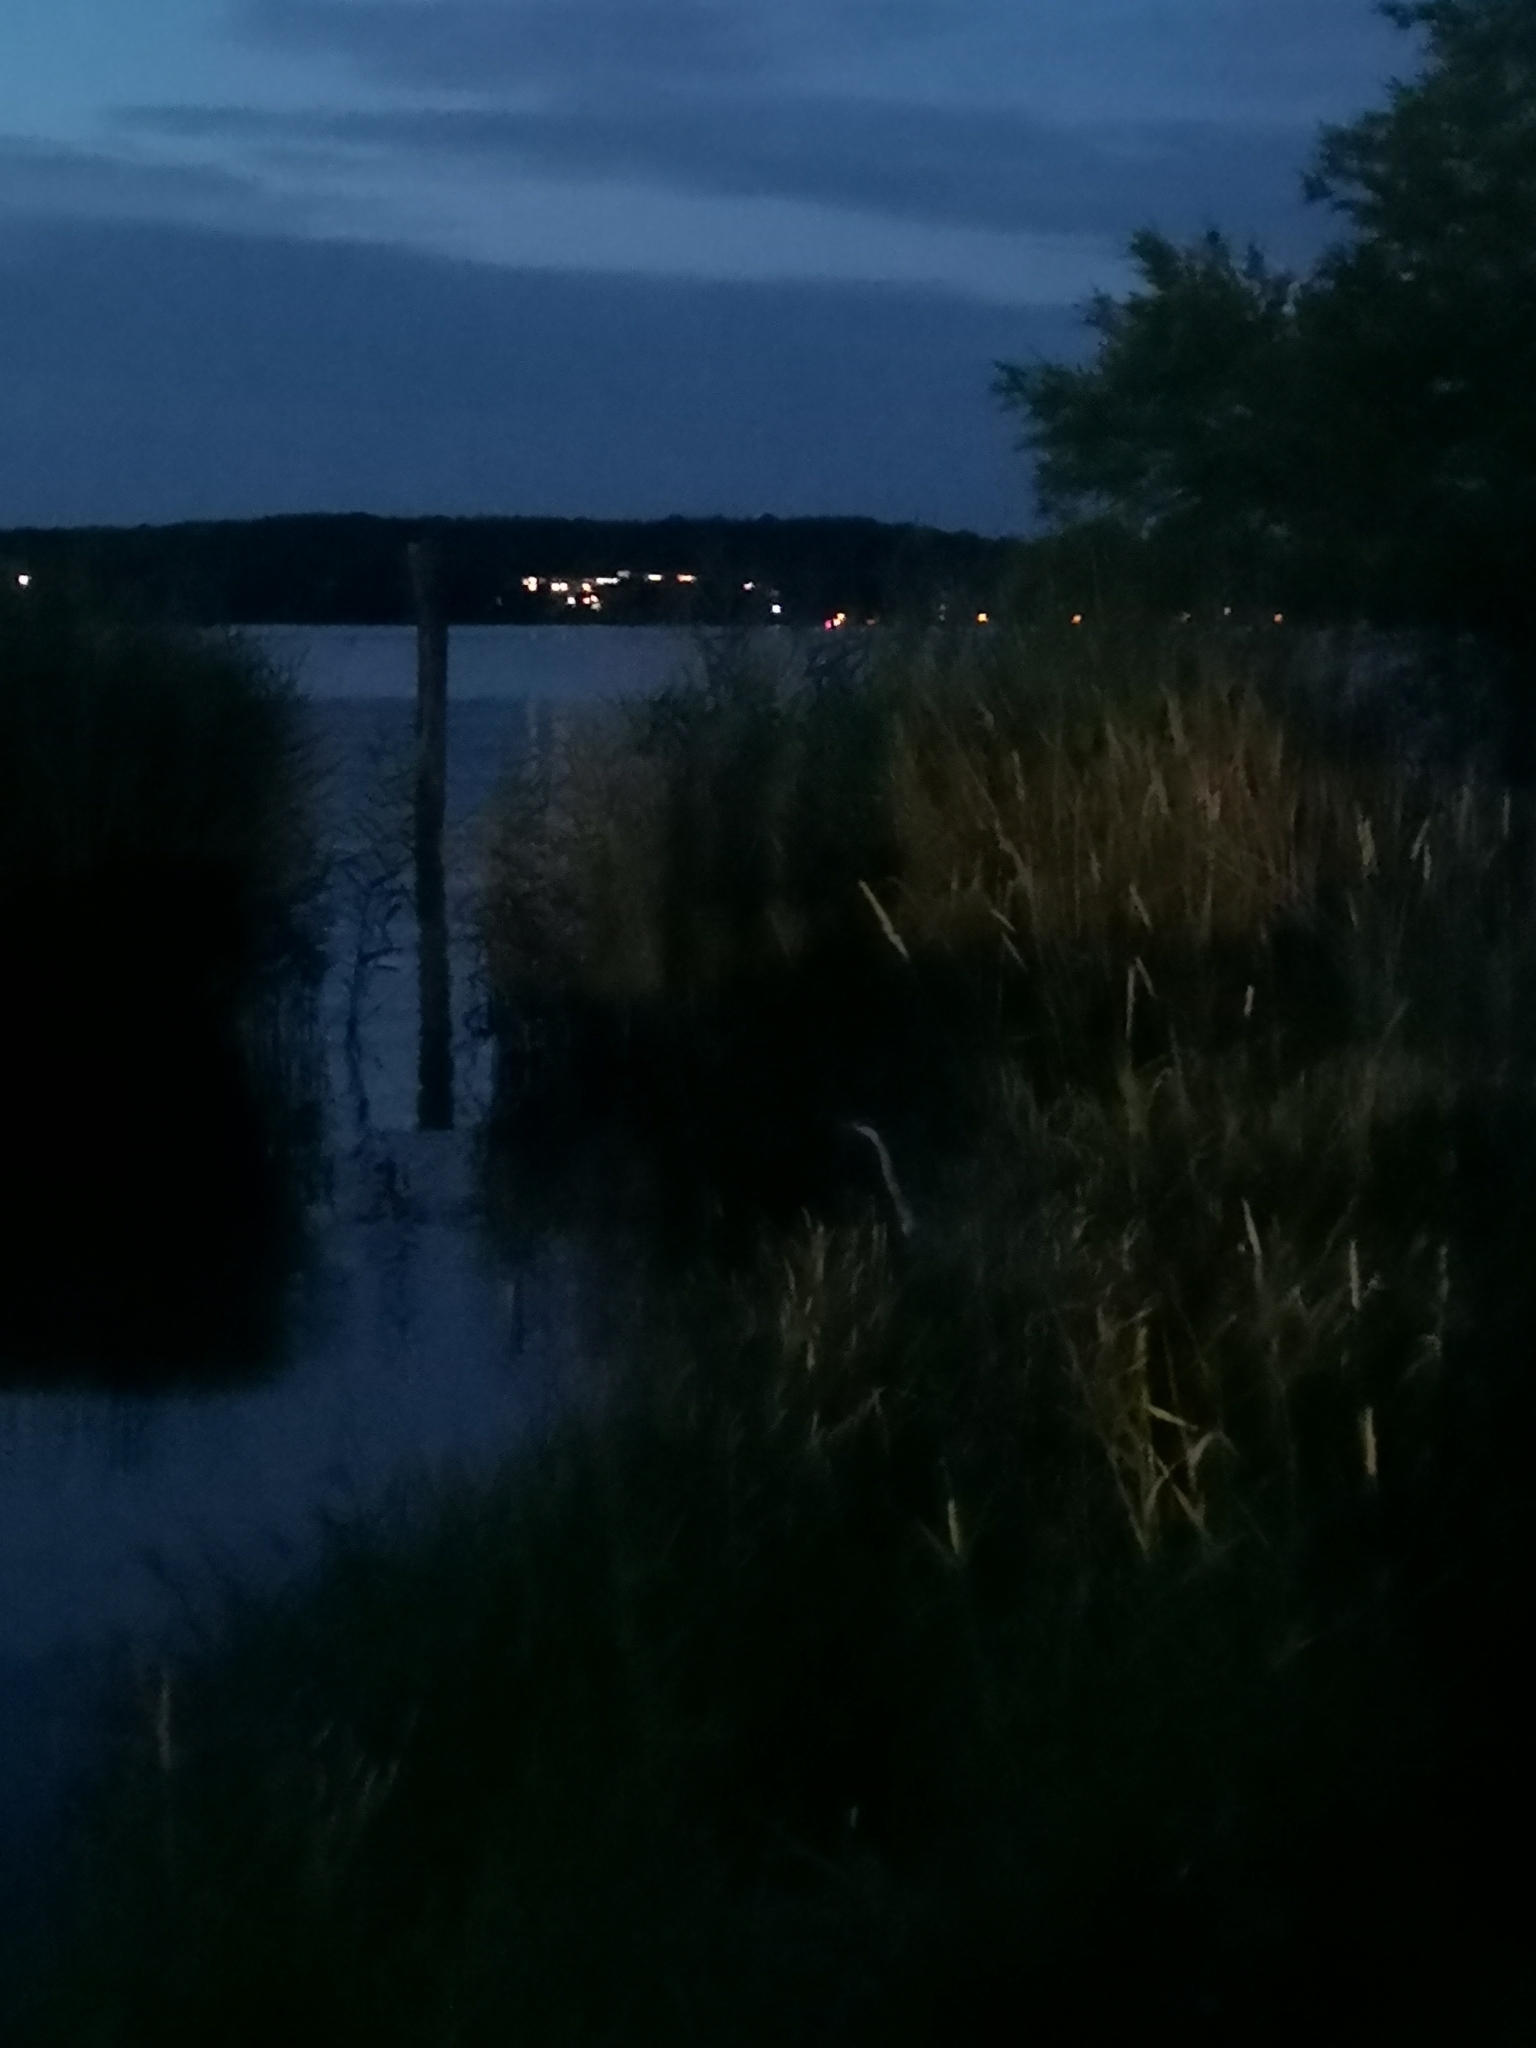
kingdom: Animalia
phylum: Chordata
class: Aves
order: Pelecaniformes
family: Ardeidae
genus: Ardea
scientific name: Ardea cinerea
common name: Grey heron
